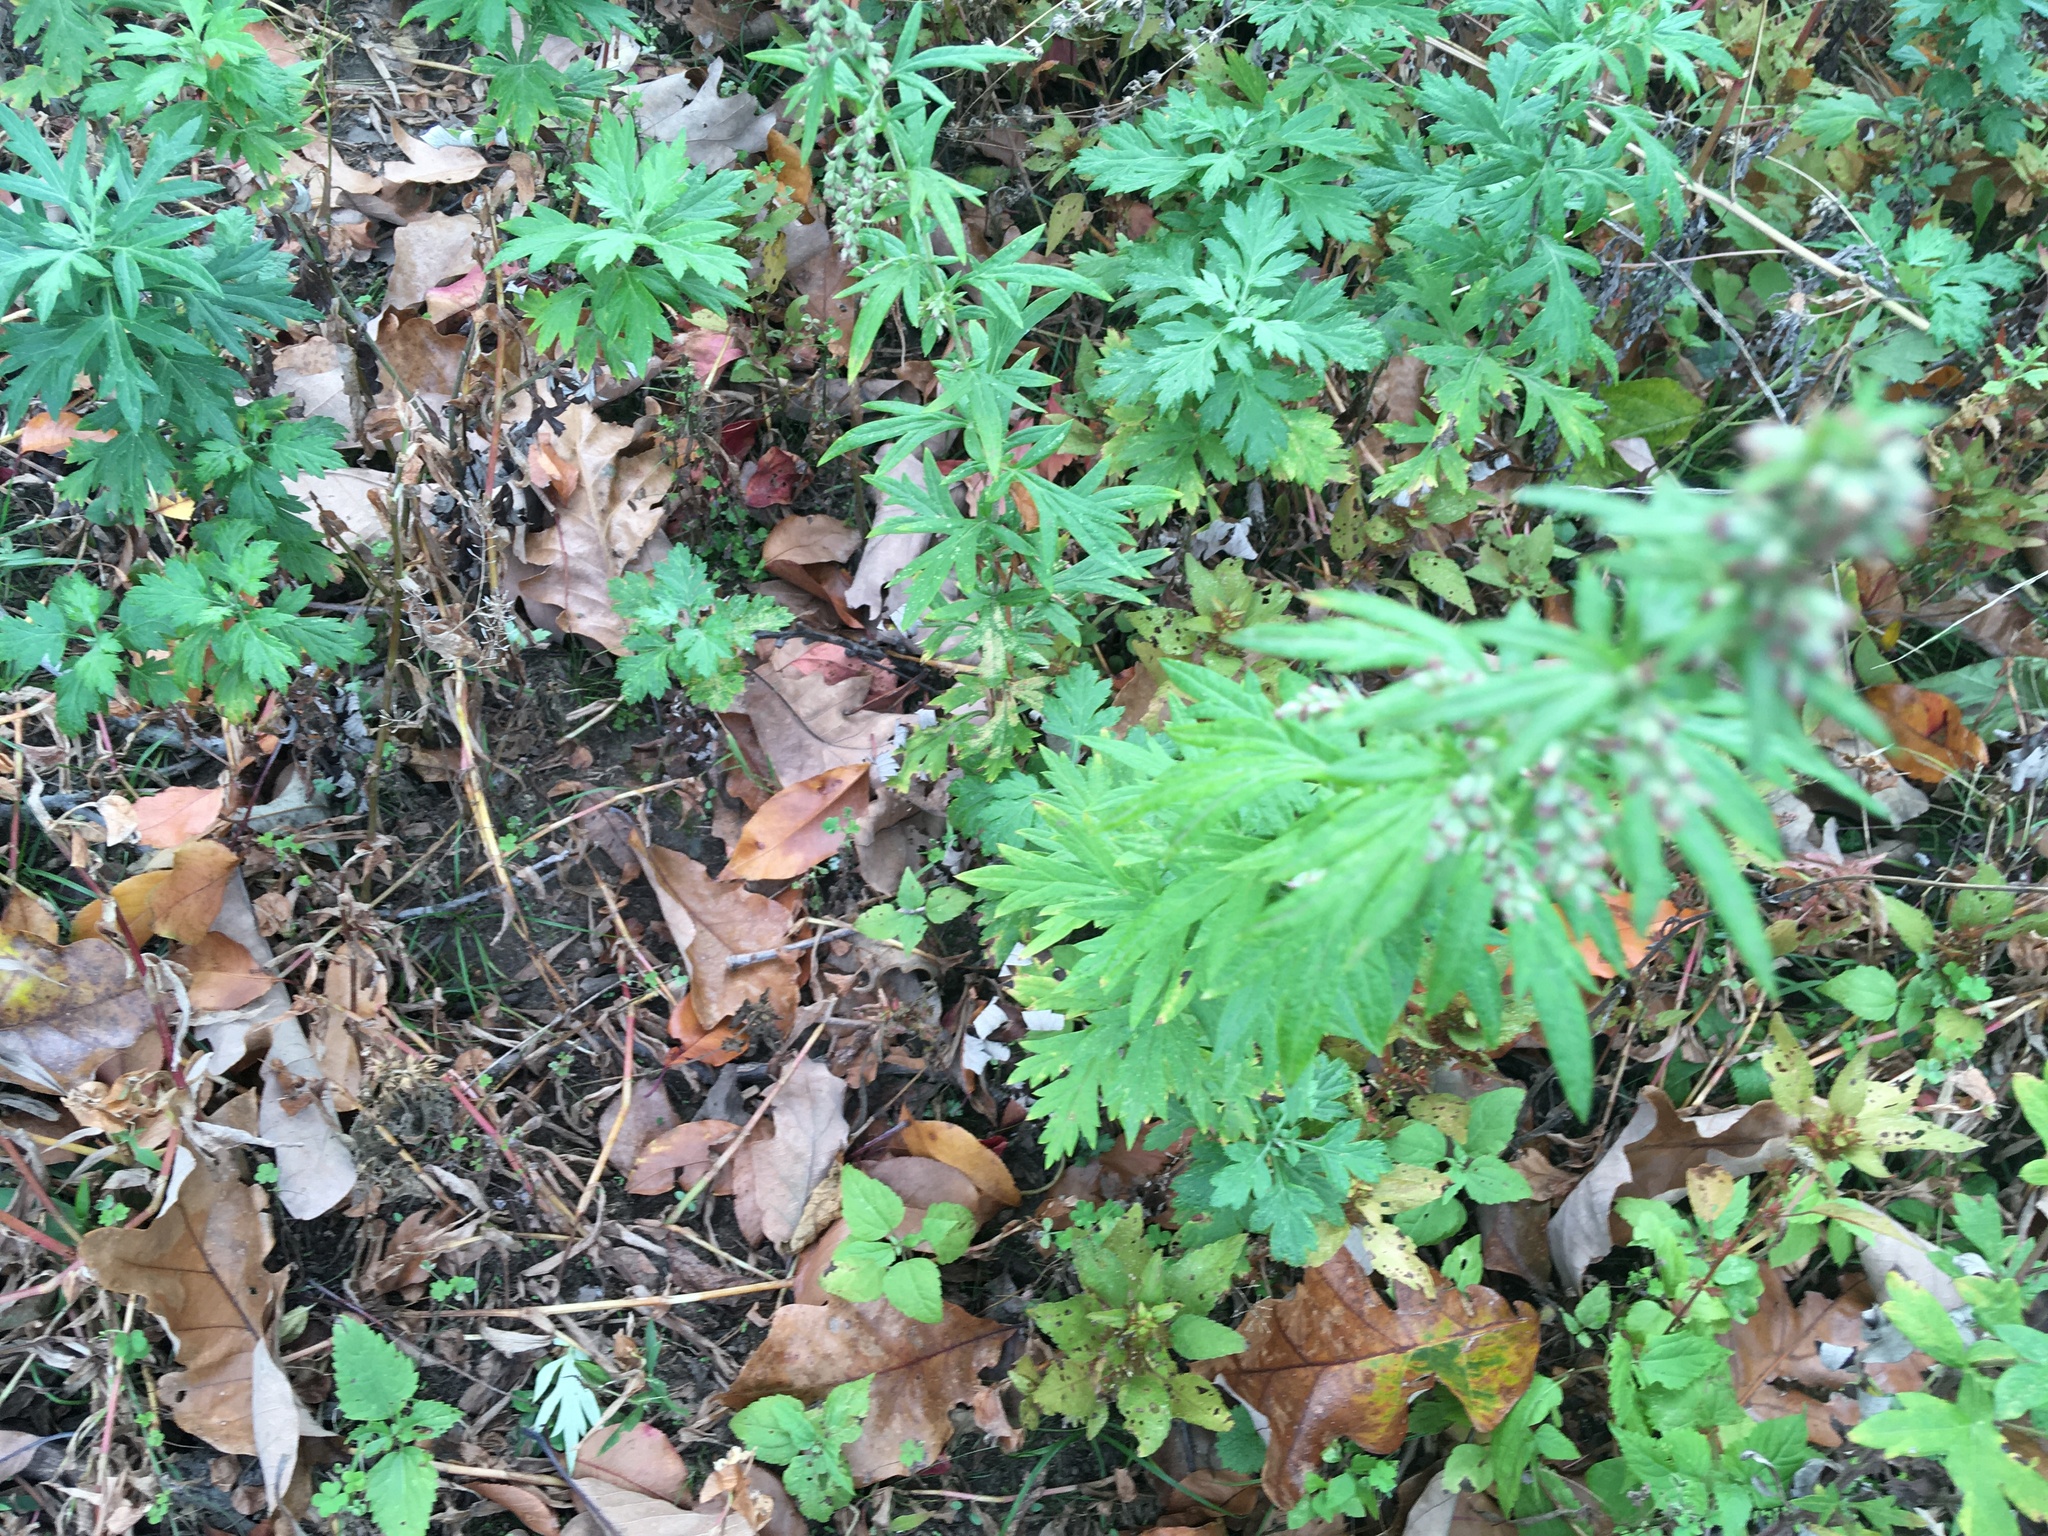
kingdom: Plantae
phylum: Tracheophyta
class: Magnoliopsida
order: Asterales
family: Asteraceae
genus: Artemisia
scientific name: Artemisia vulgaris
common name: Mugwort
